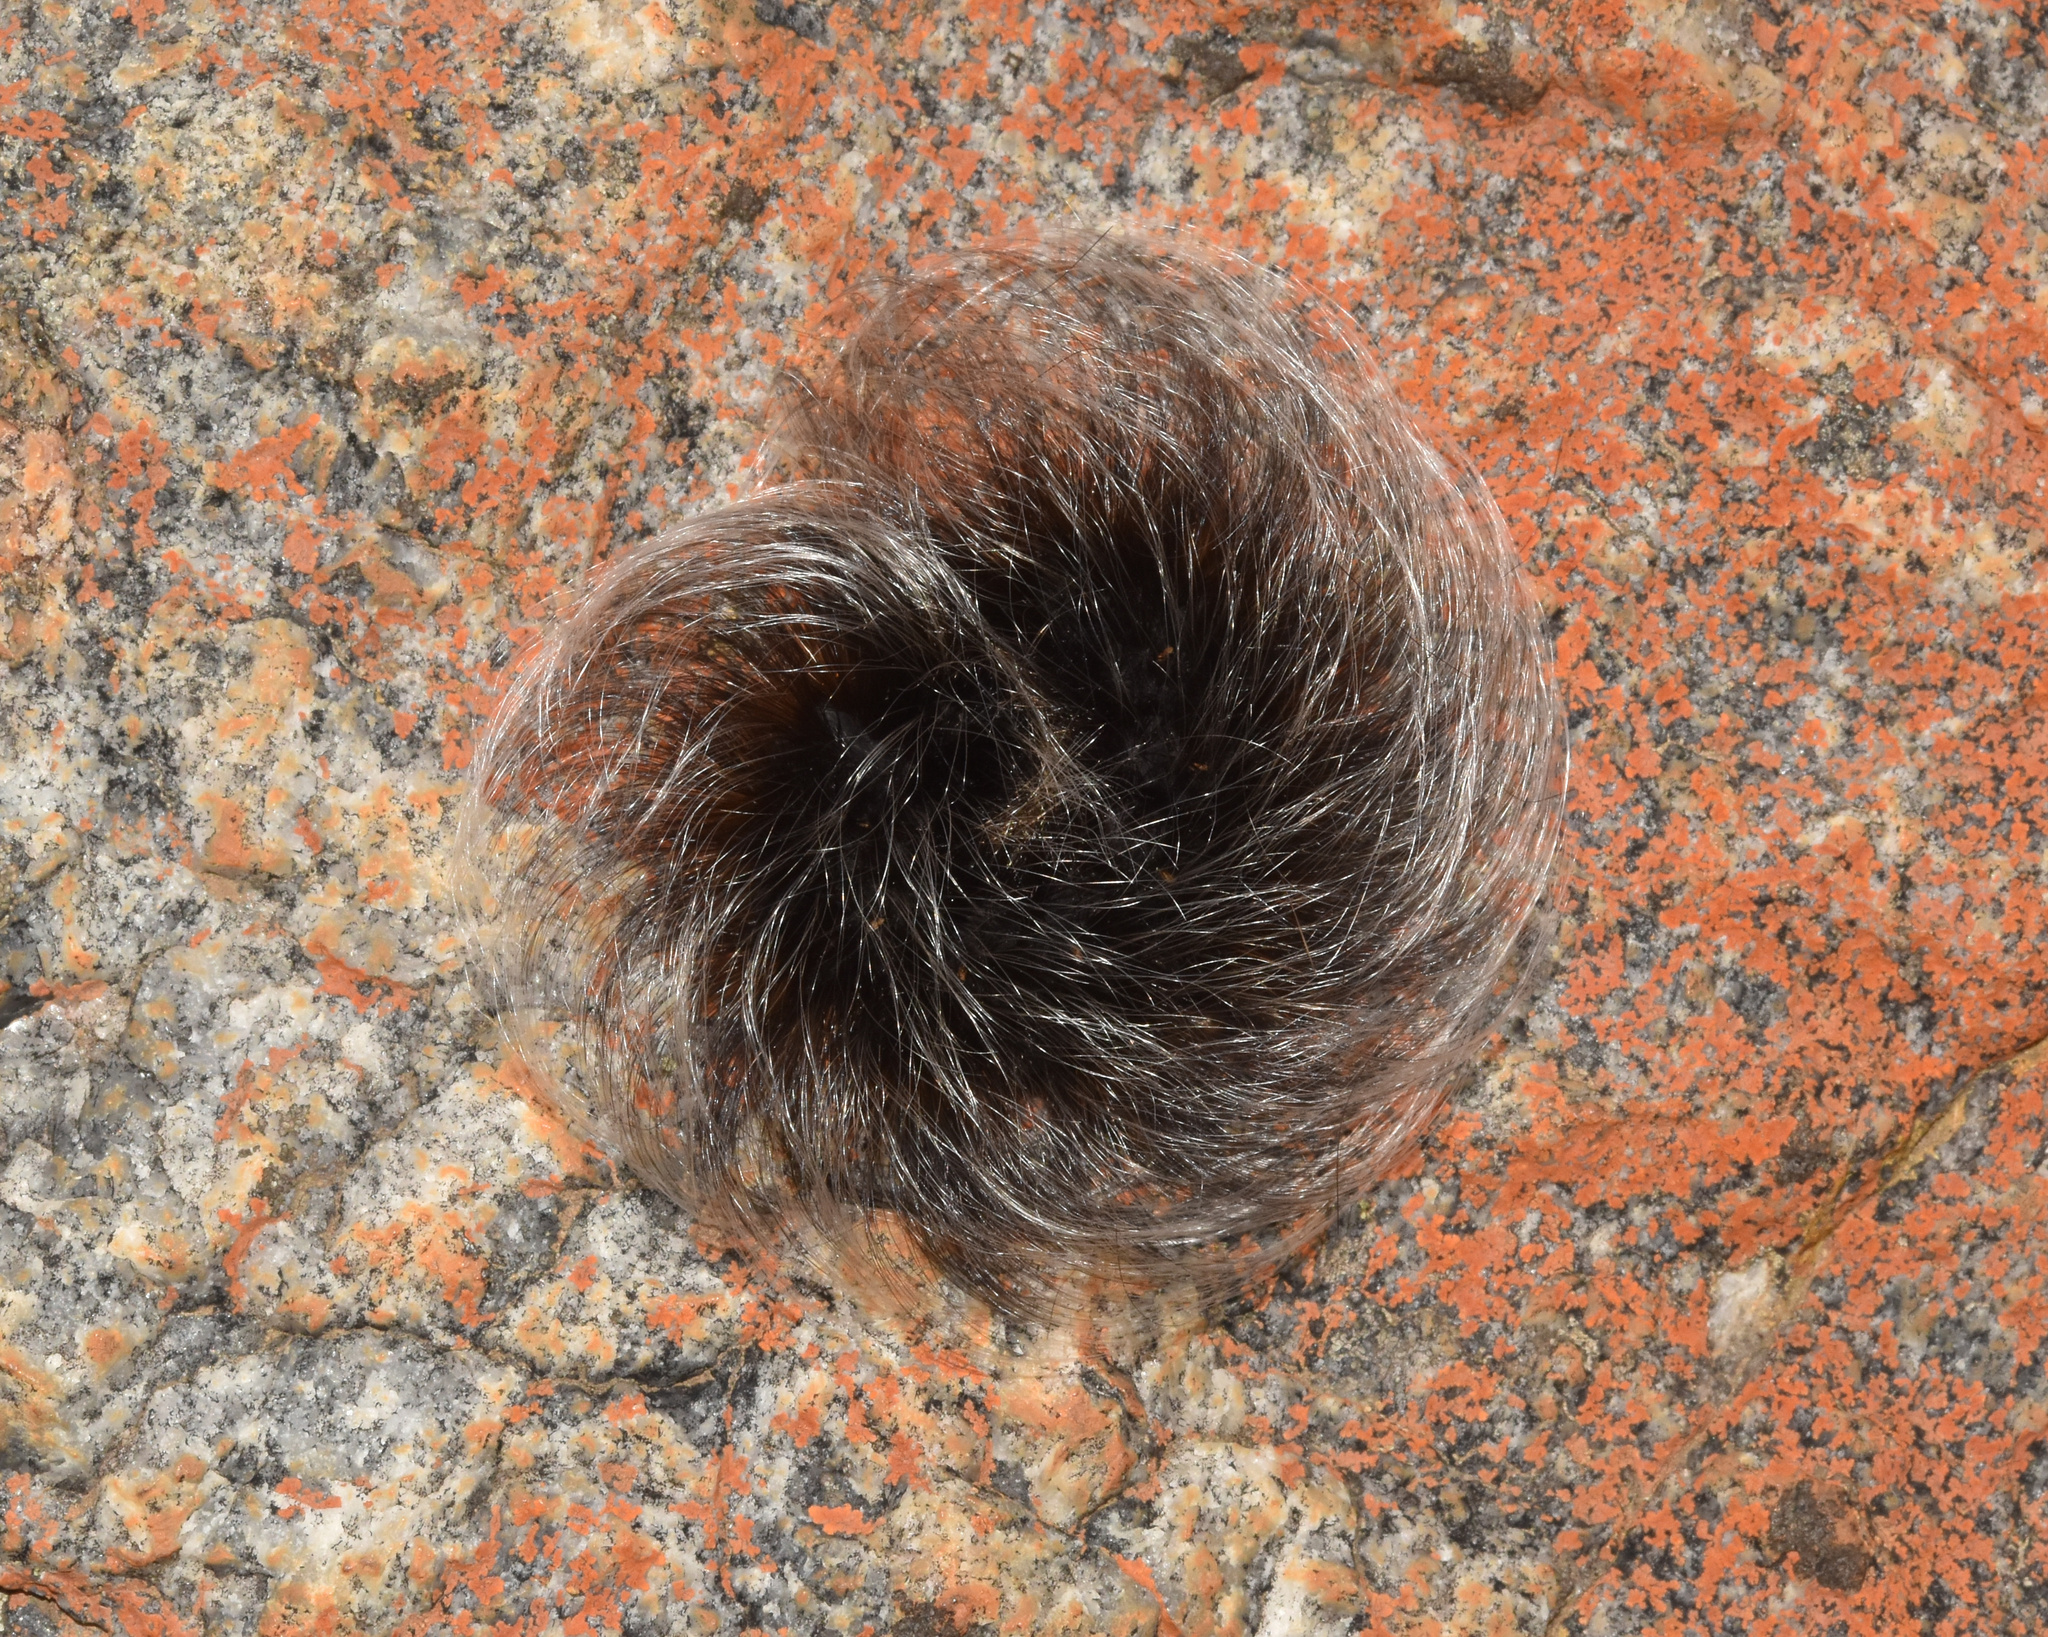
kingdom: Animalia
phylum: Arthropoda
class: Insecta
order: Lepidoptera
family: Eupterotidae
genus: Janomima
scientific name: Janomima mariana
